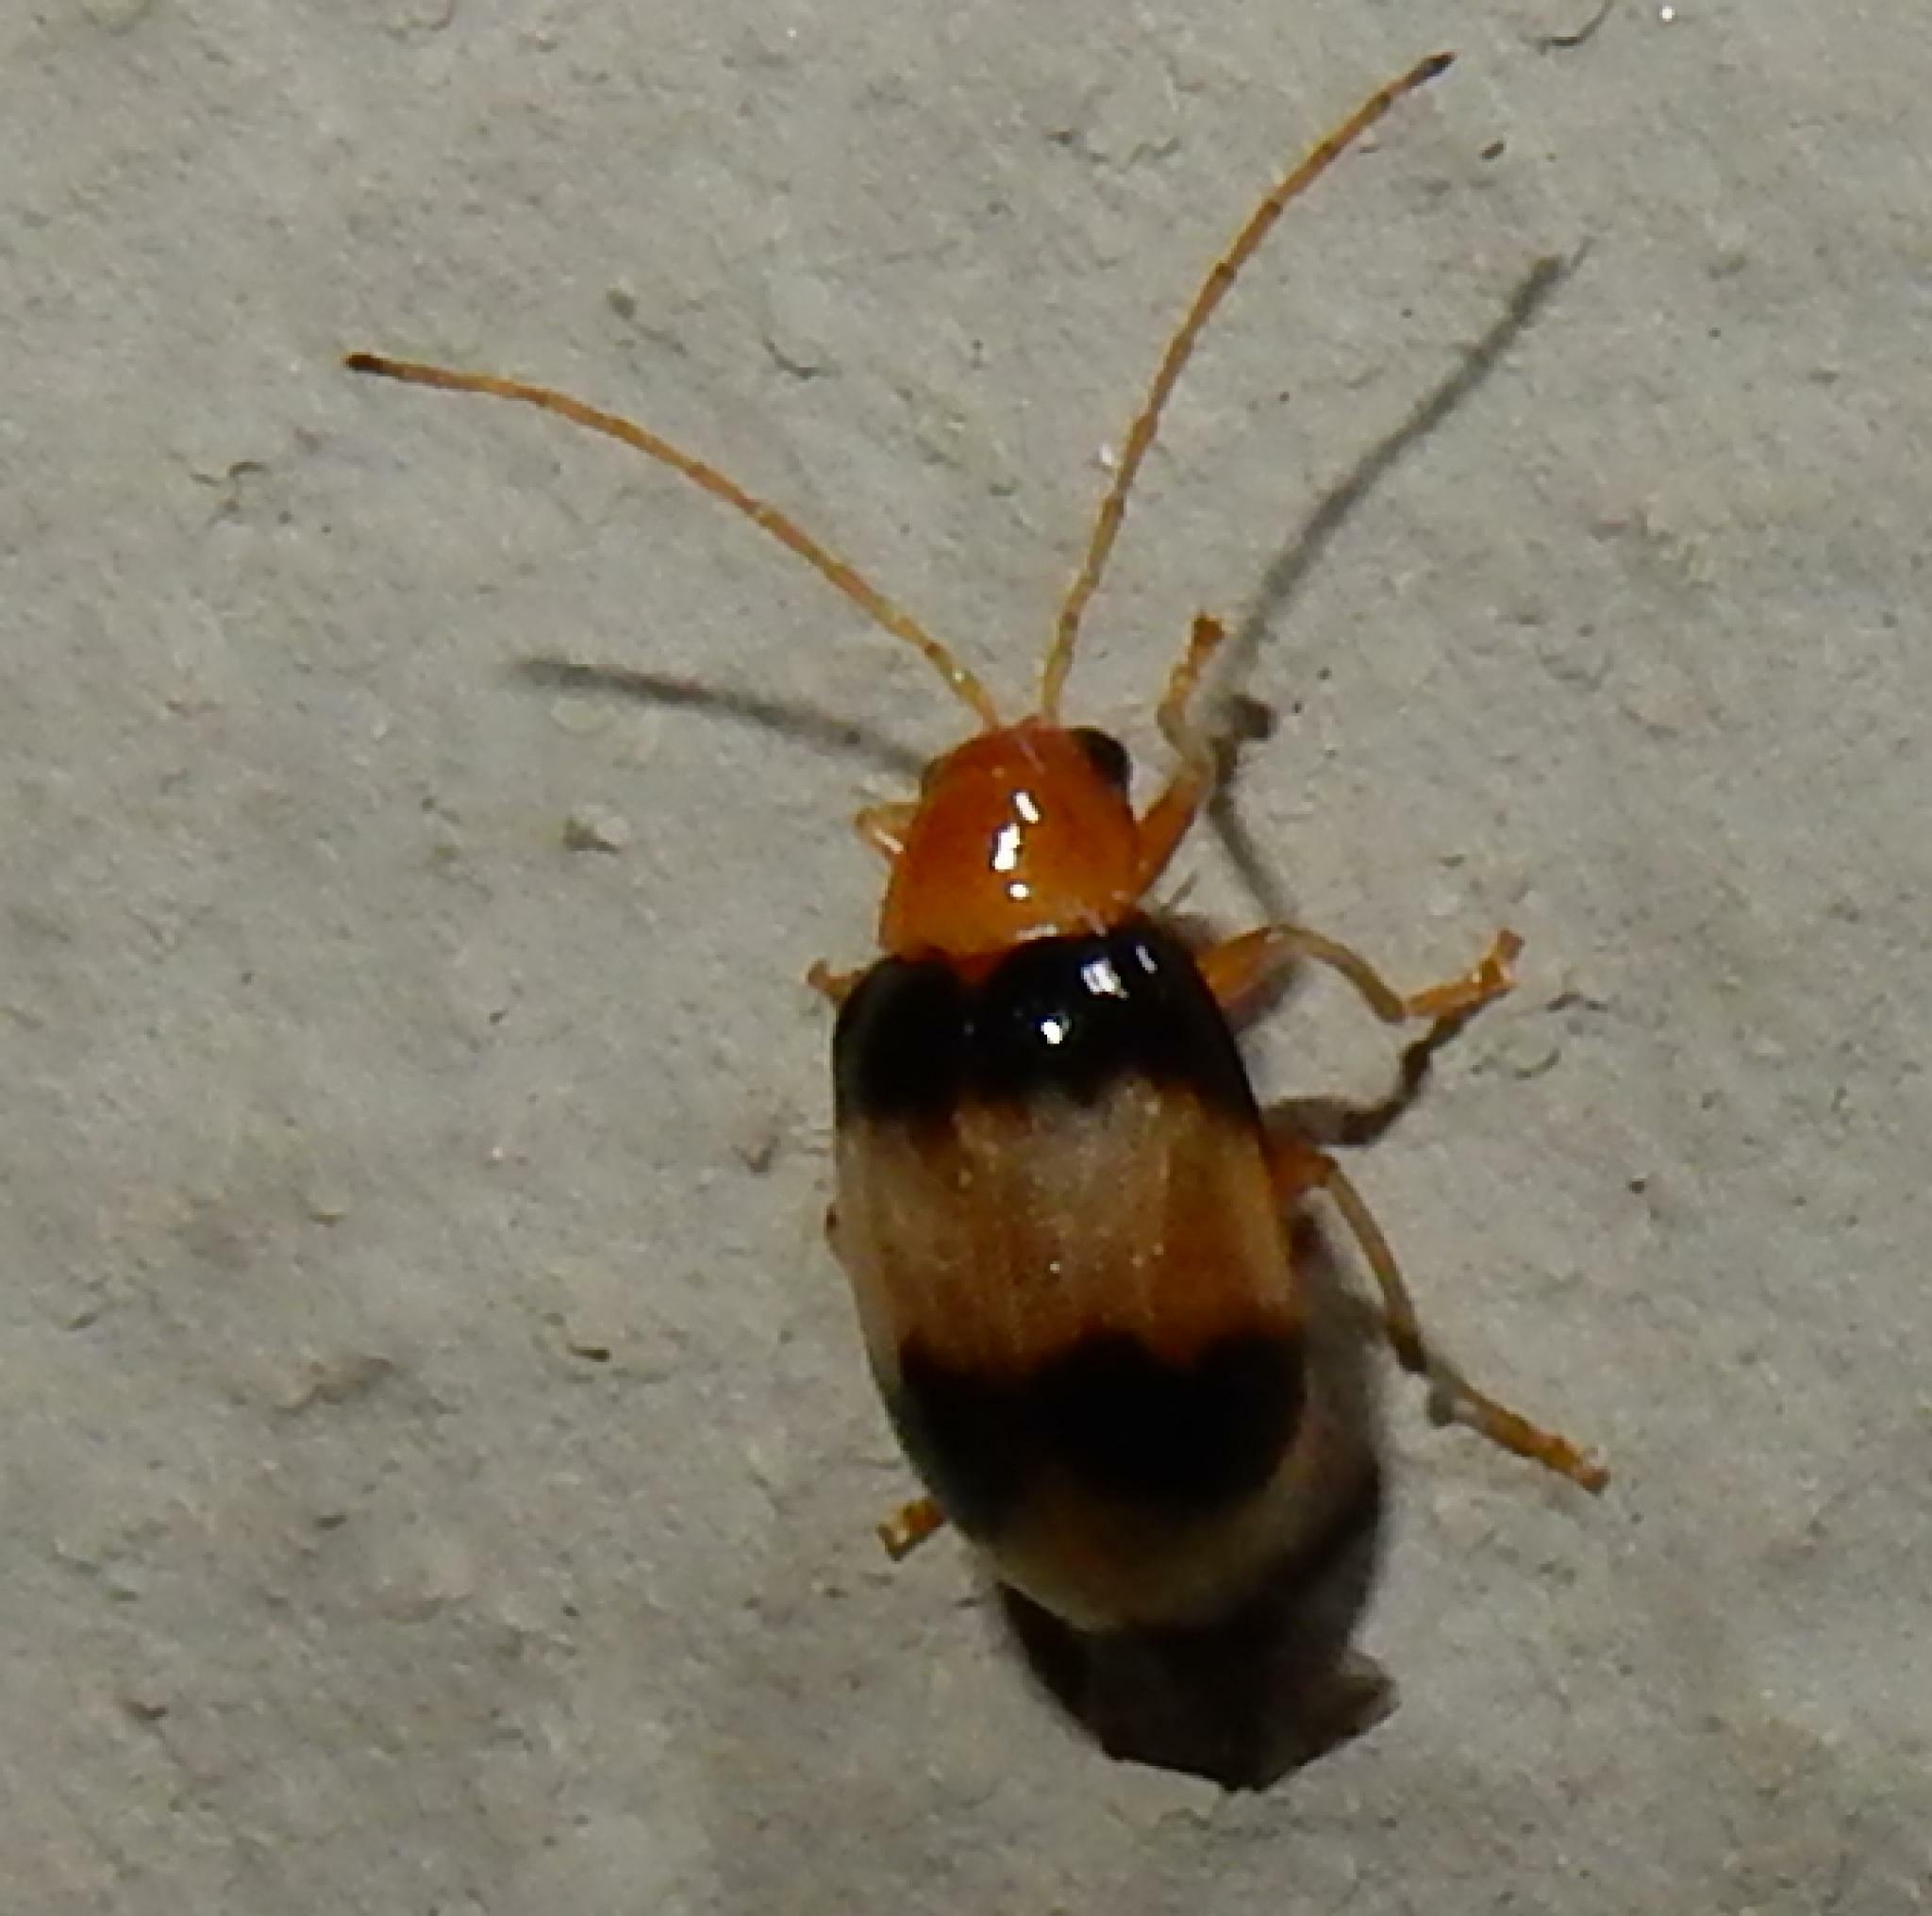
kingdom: Animalia
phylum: Arthropoda
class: Insecta
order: Coleoptera
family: Chrysomelidae
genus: Monolepta
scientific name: Monolepta
